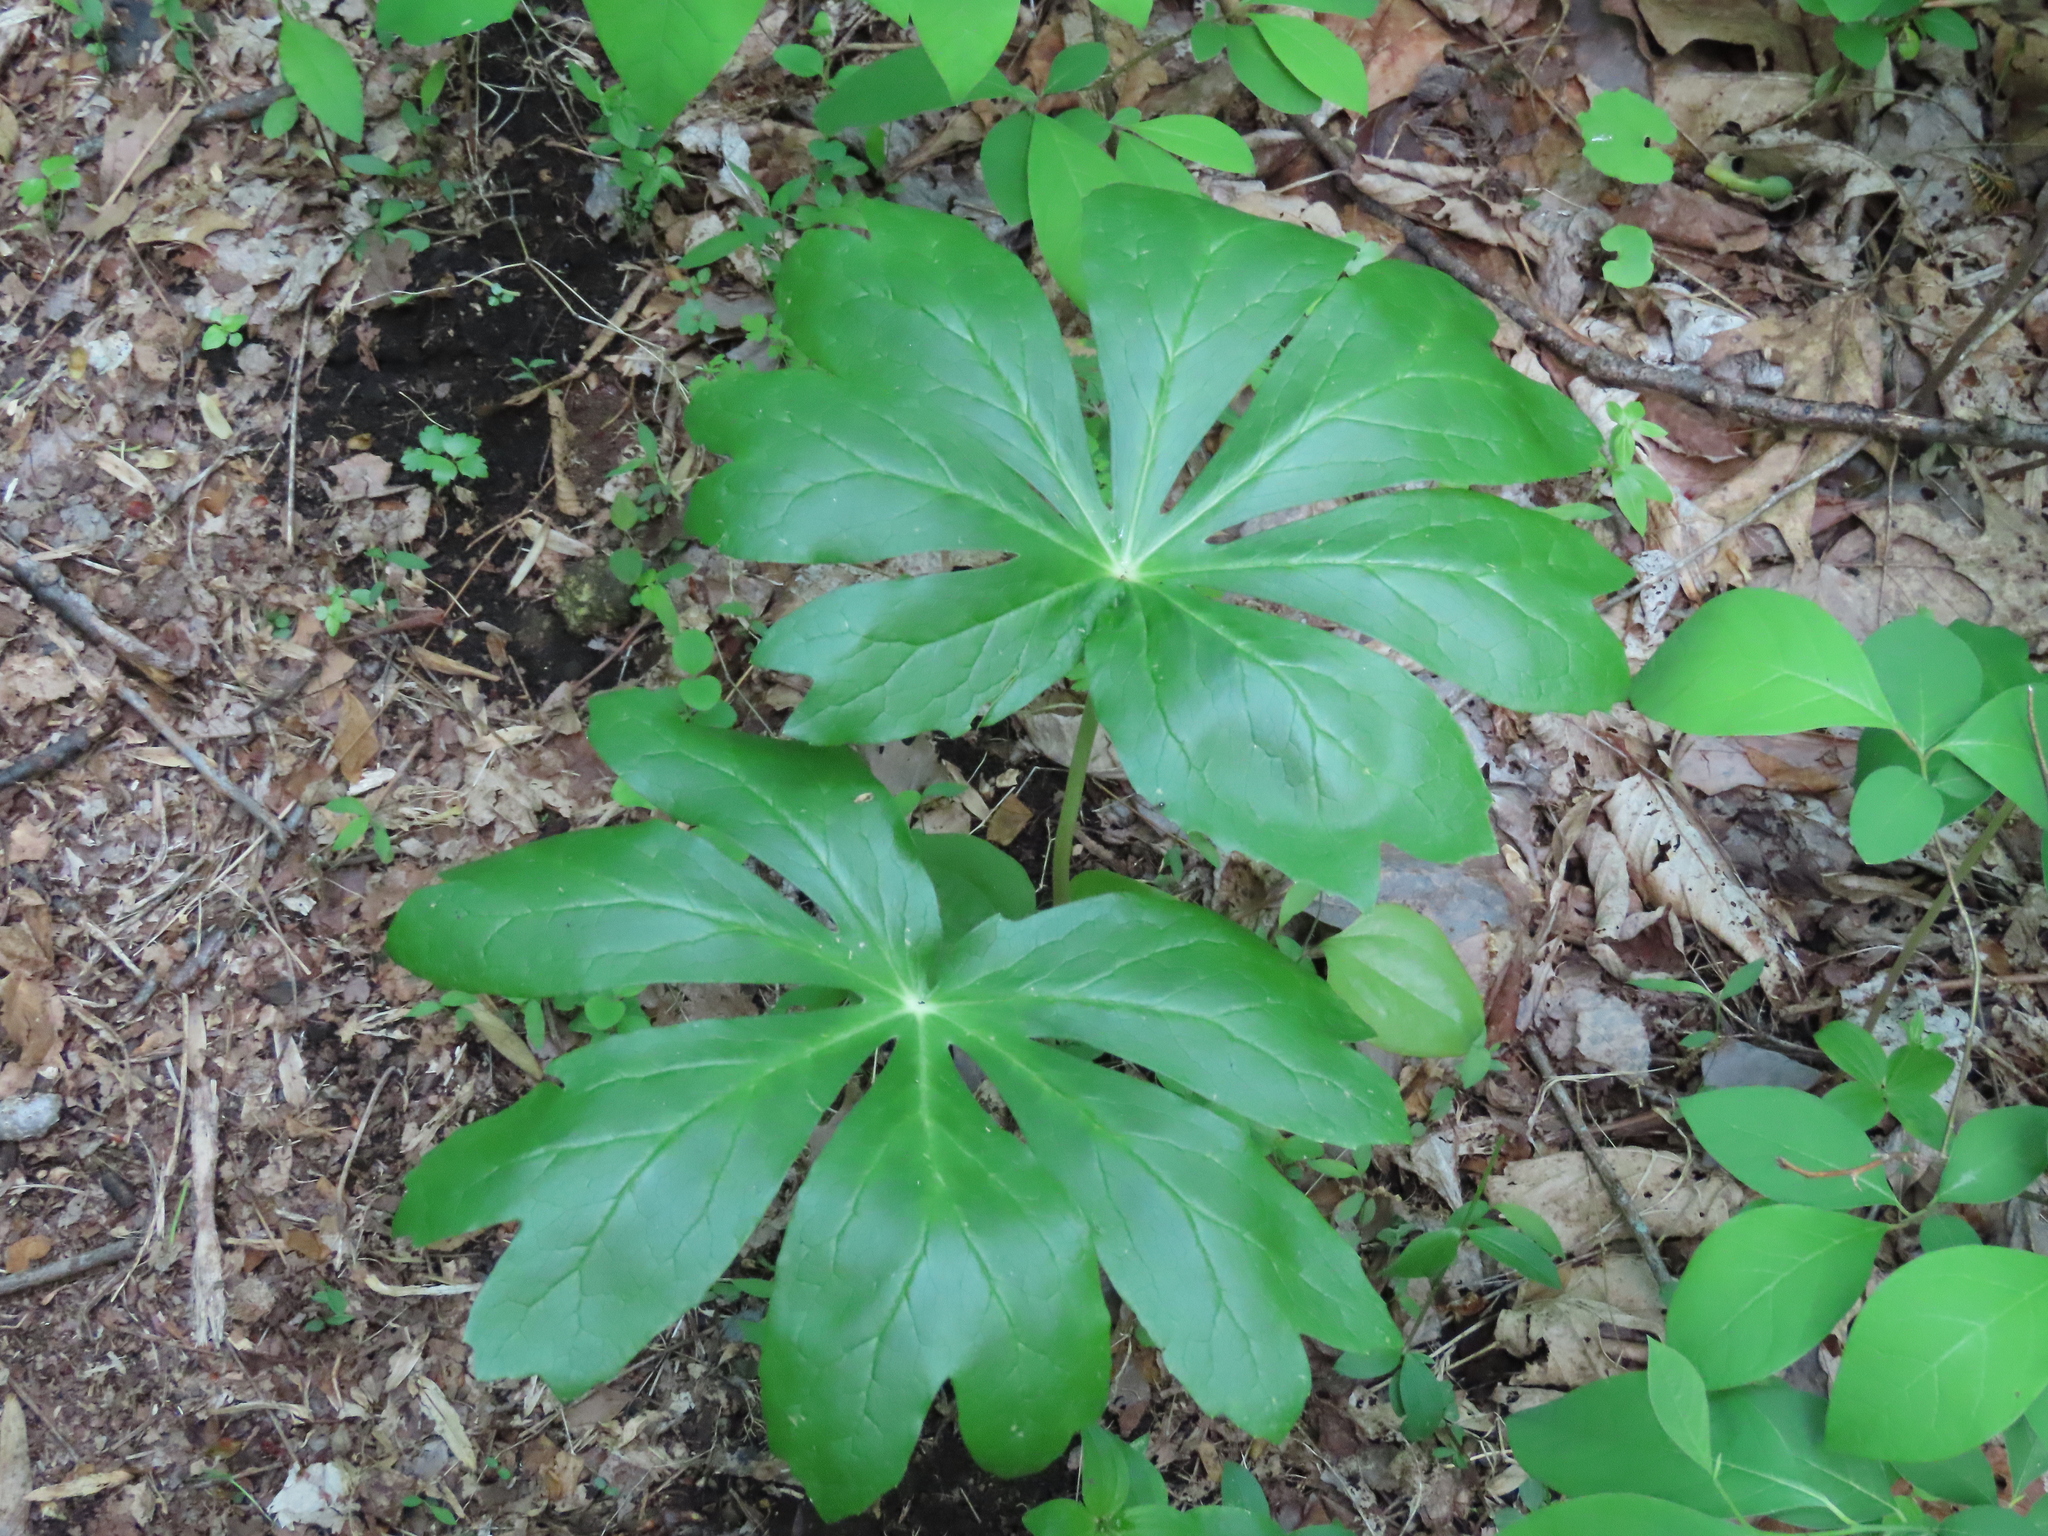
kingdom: Plantae
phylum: Tracheophyta
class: Magnoliopsida
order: Ranunculales
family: Berberidaceae
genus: Podophyllum
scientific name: Podophyllum peltatum
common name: Wild mandrake
